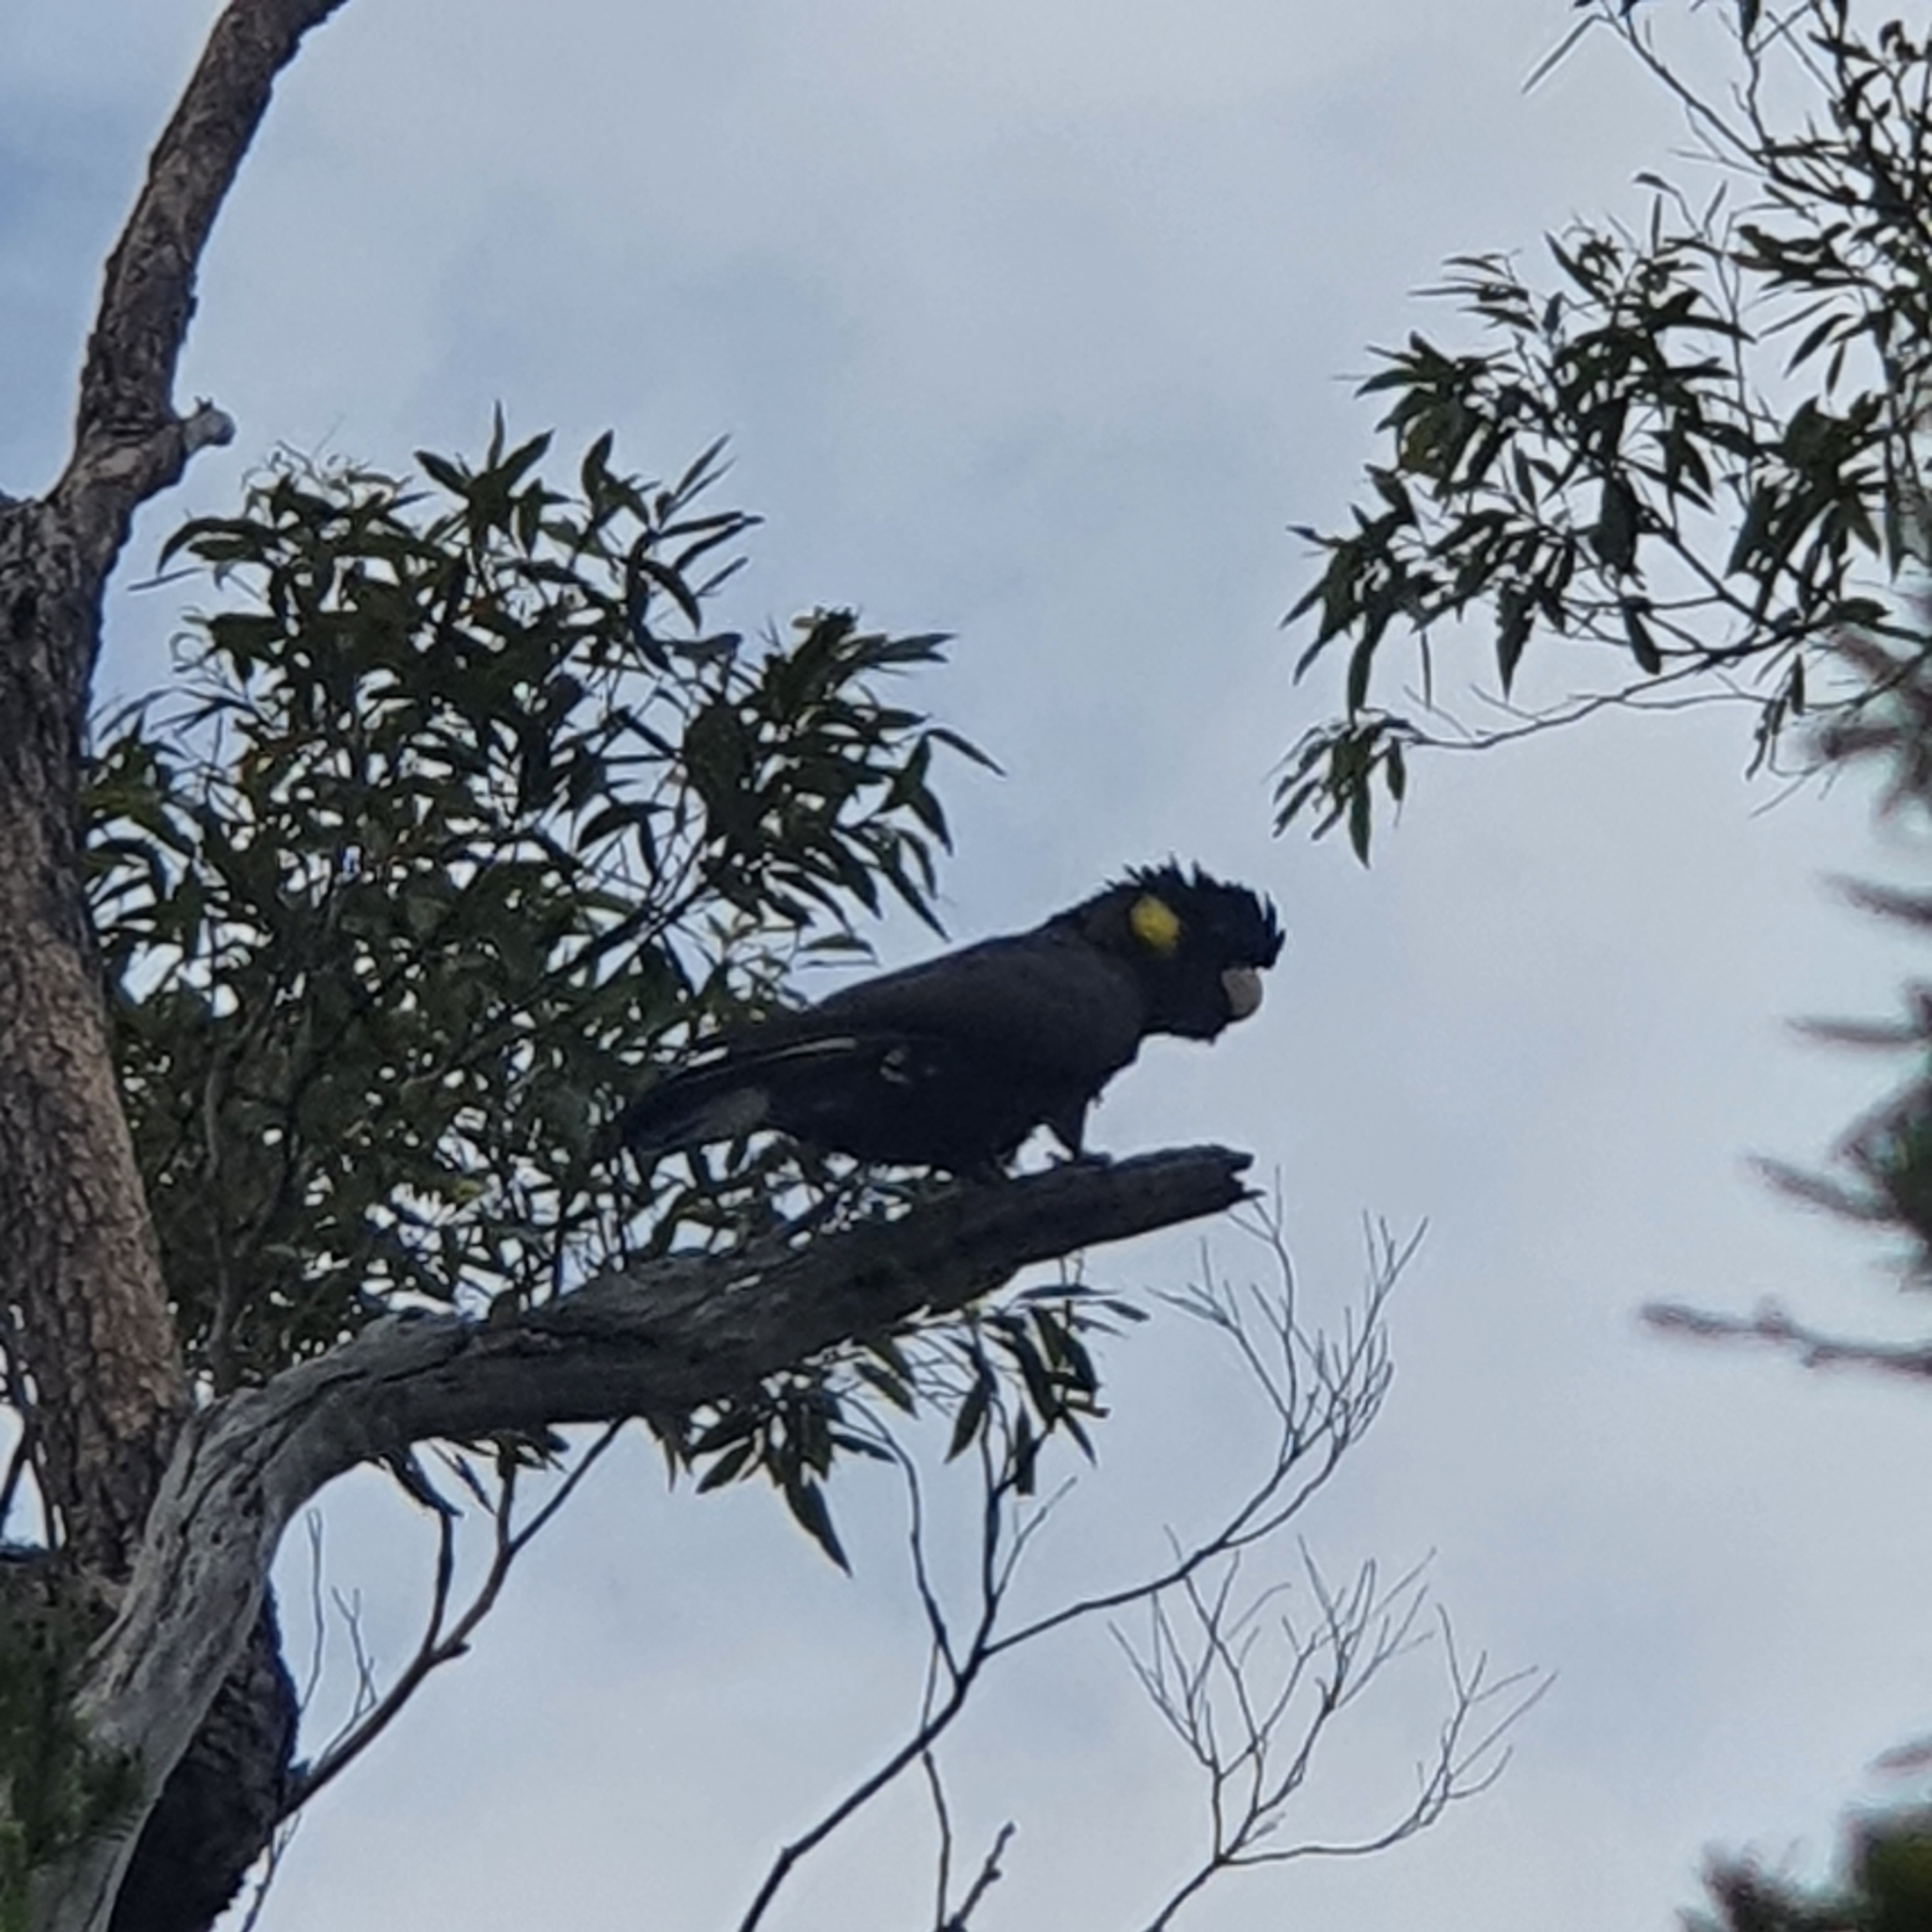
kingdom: Animalia
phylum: Chordata
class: Aves
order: Psittaciformes
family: Cacatuidae
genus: Zanda
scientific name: Zanda funerea
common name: Yellow-tailed black-cockatoo
